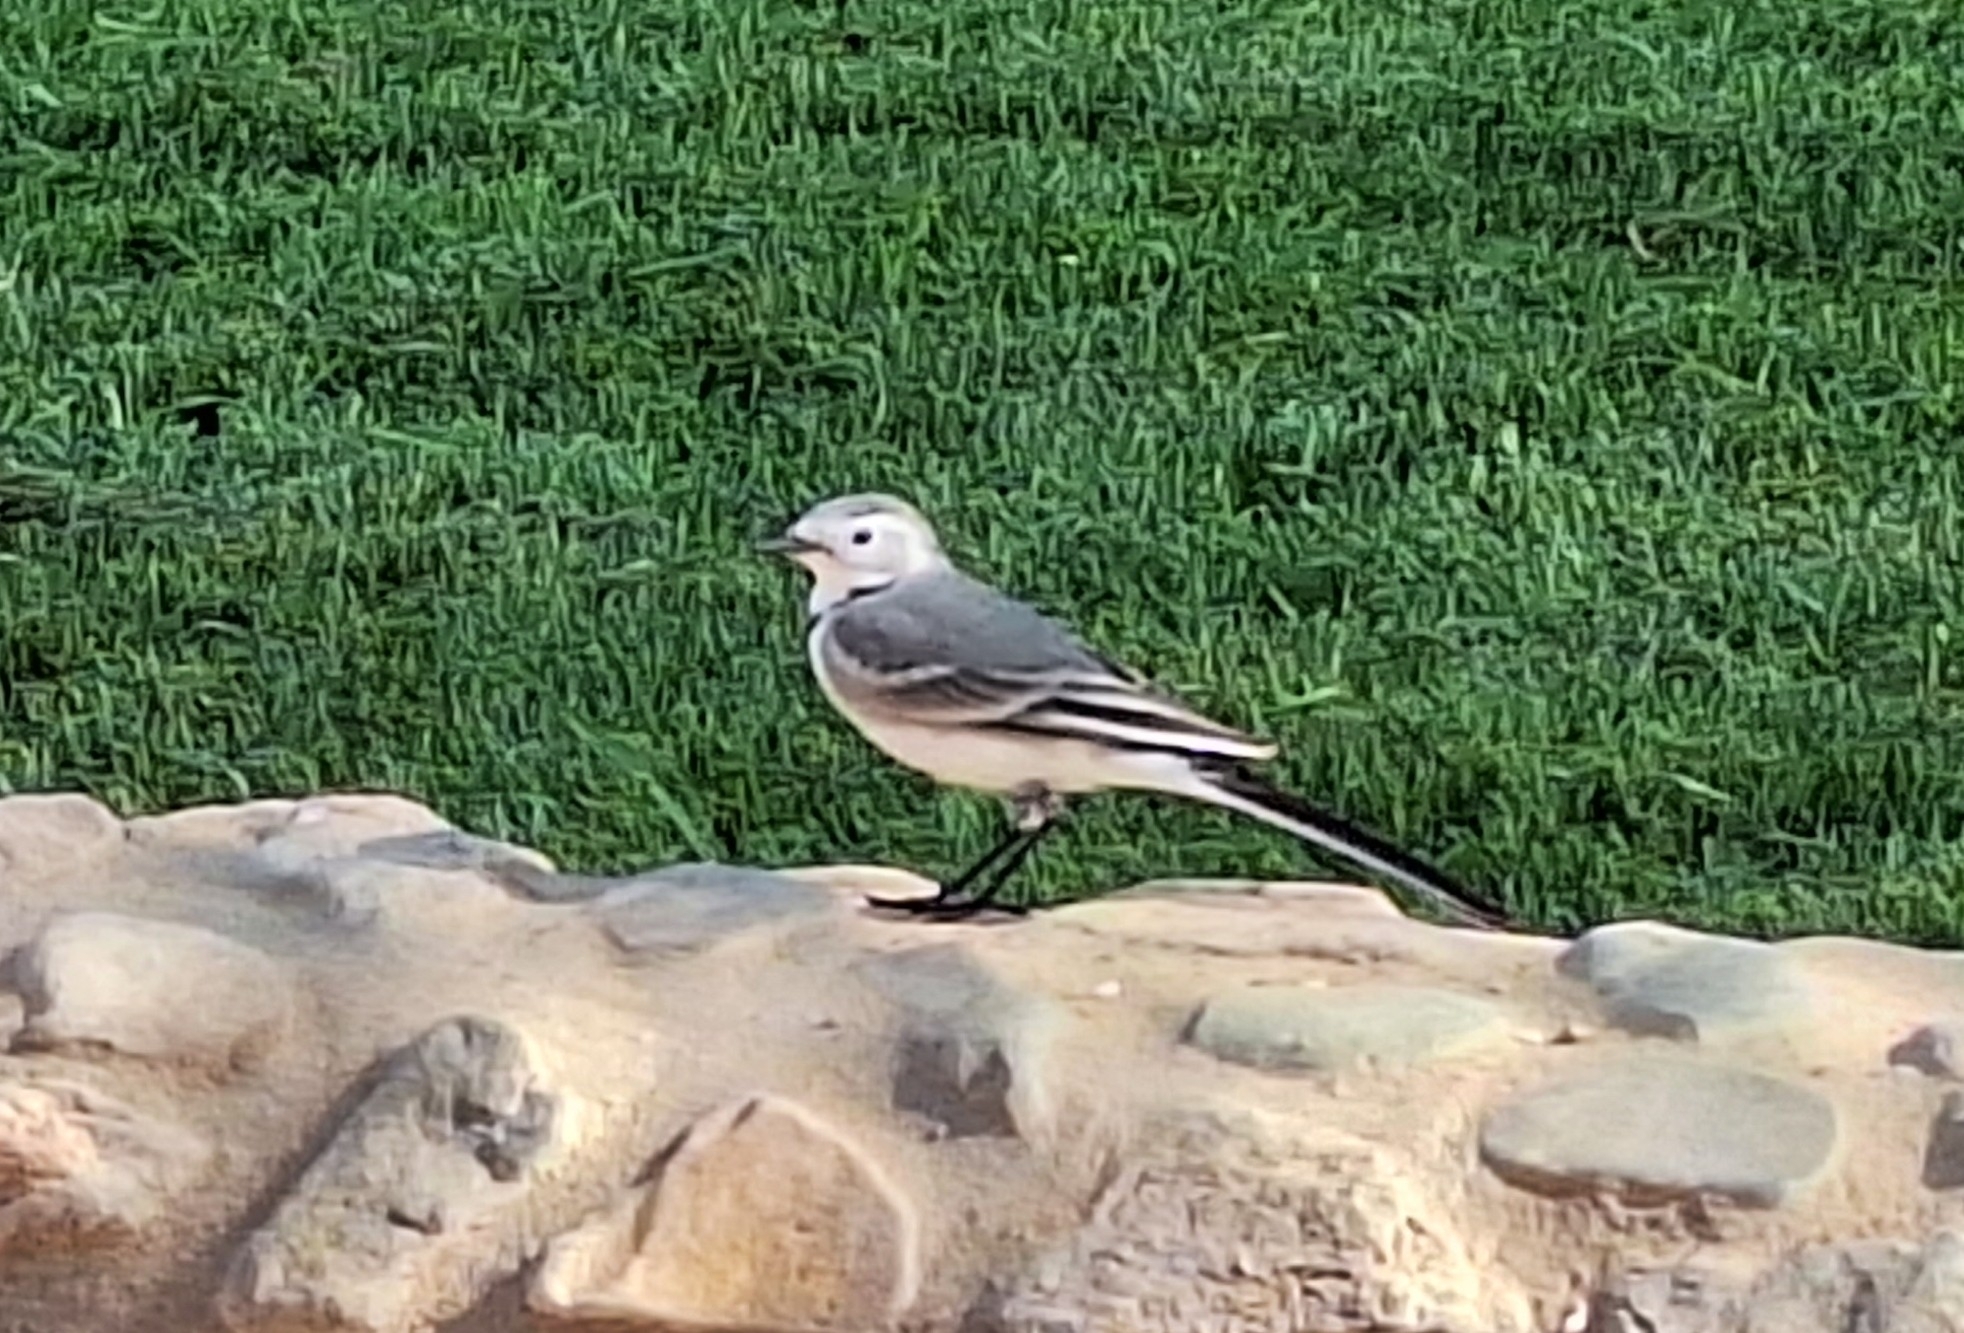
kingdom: Animalia
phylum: Chordata
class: Aves
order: Passeriformes
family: Motacillidae
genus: Motacilla
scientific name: Motacilla alba
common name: White wagtail
